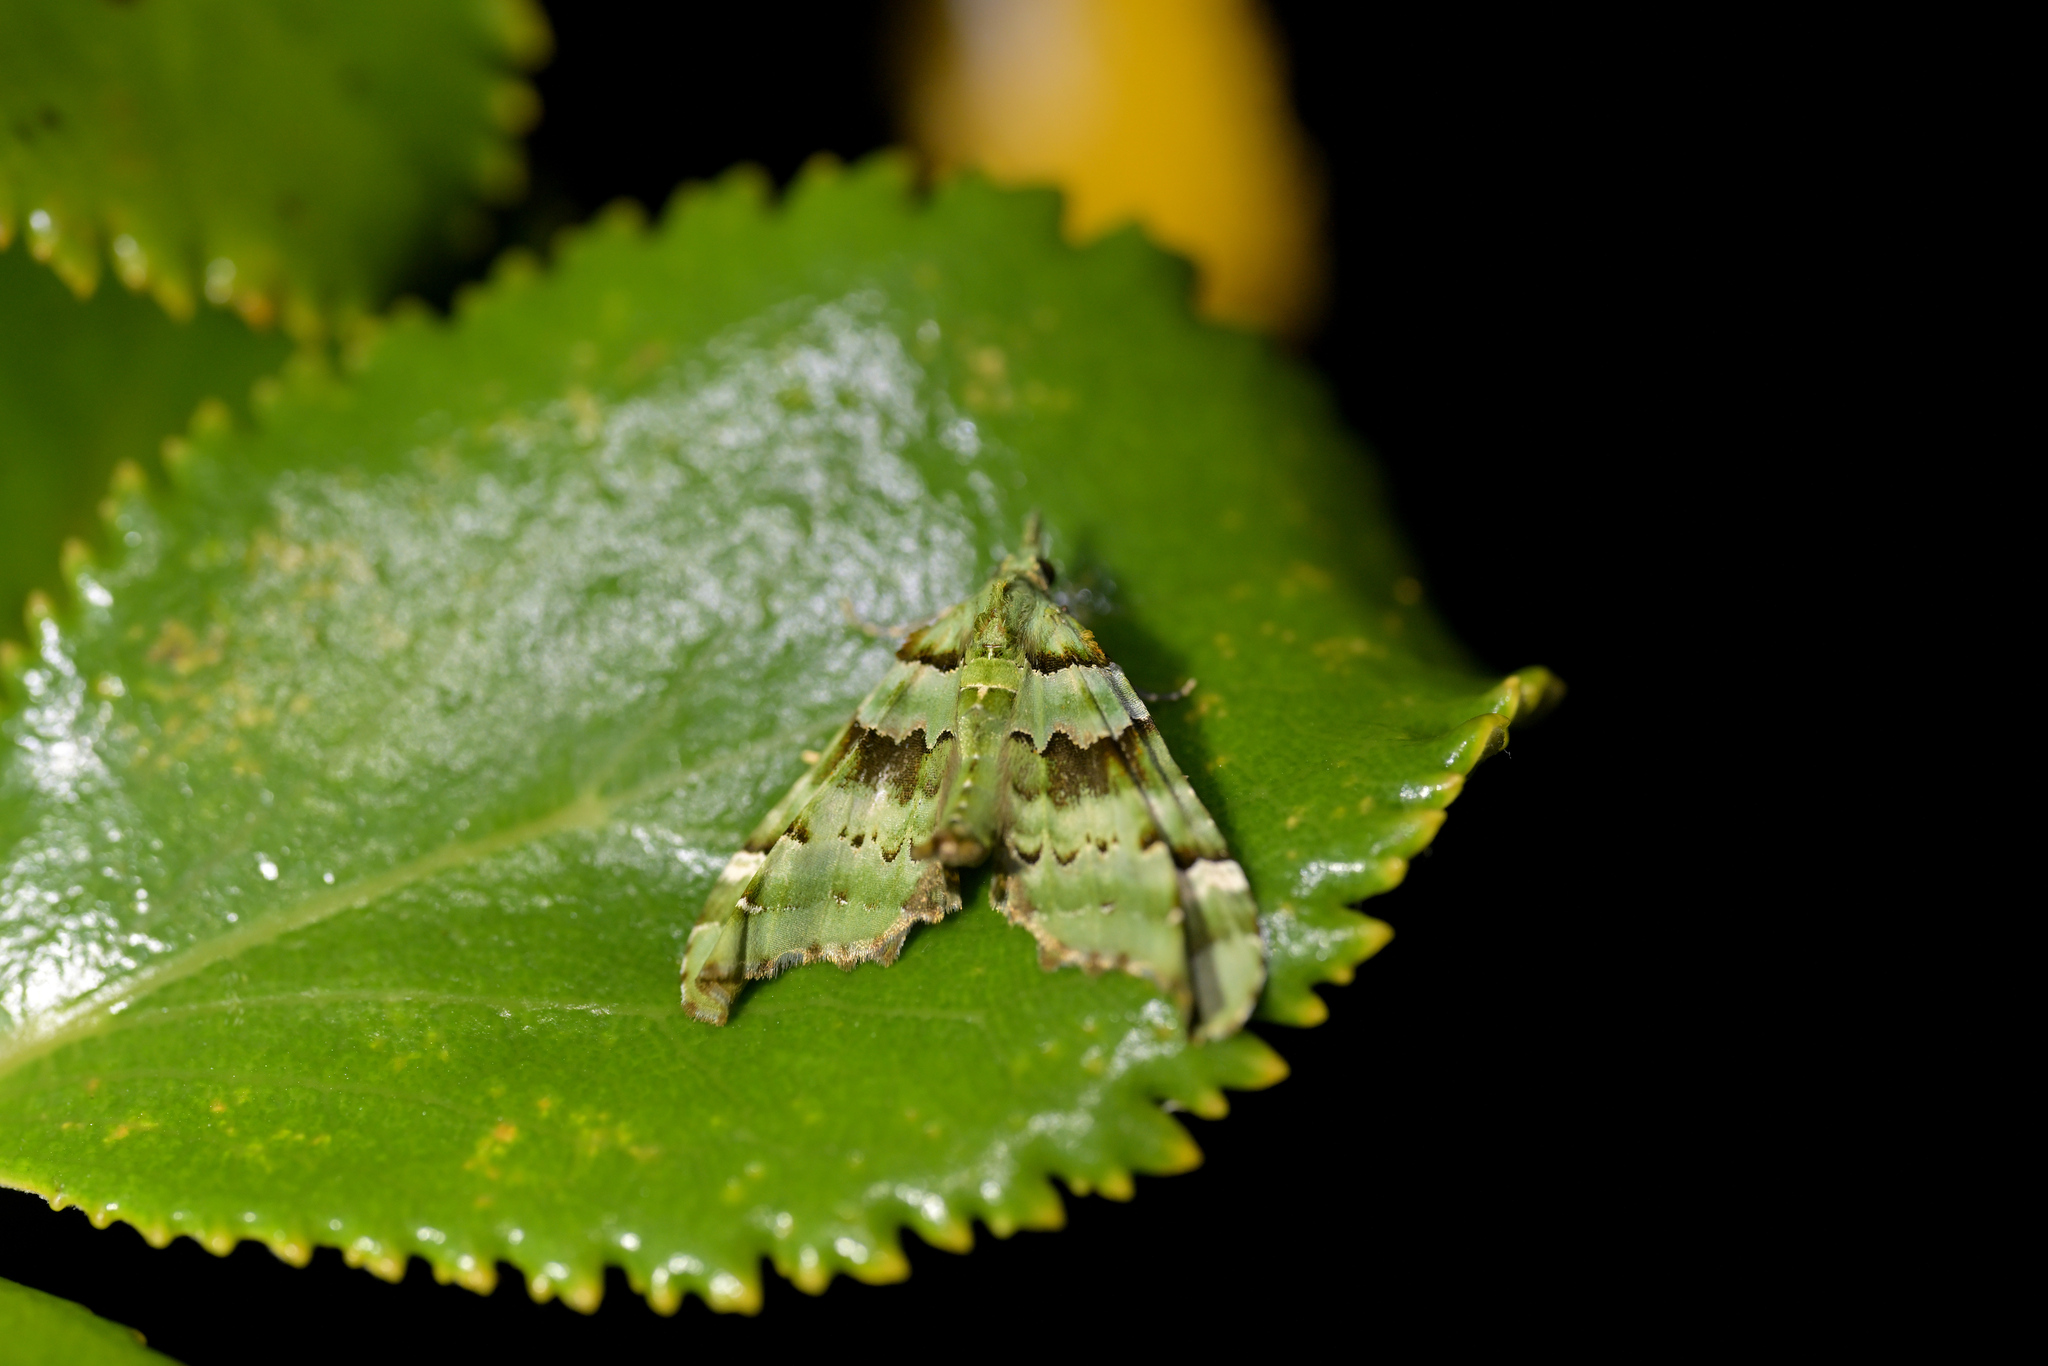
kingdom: Animalia
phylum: Arthropoda
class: Insecta
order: Lepidoptera
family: Geometridae
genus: Elvia
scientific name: Elvia glaucata
